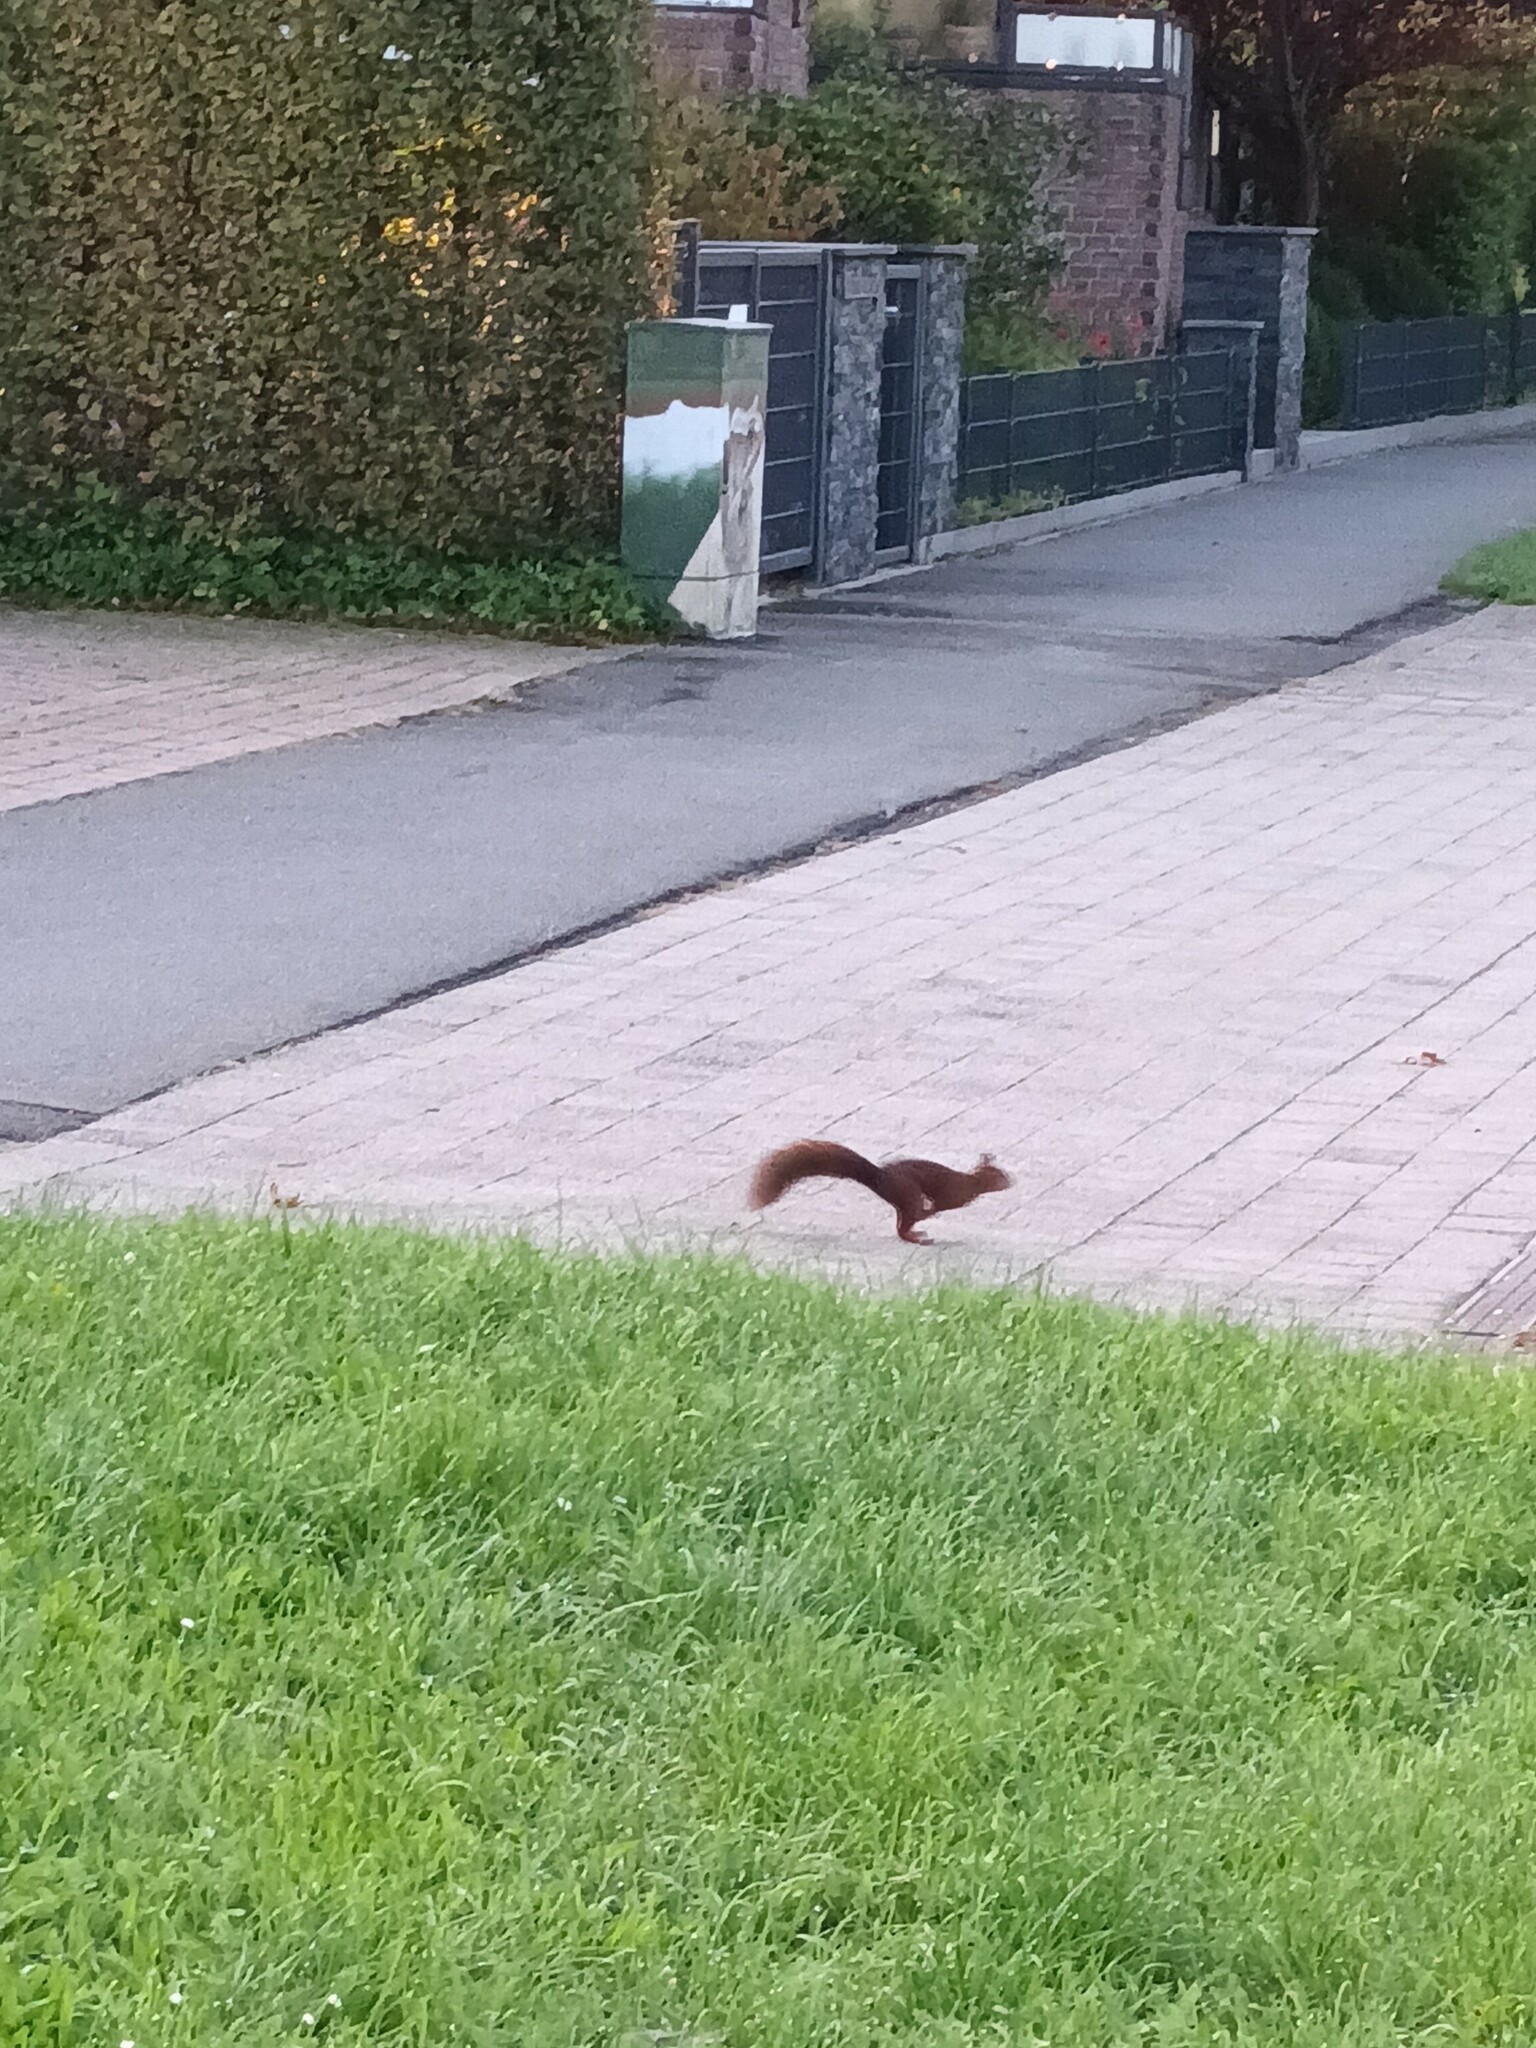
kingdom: Animalia
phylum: Chordata
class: Mammalia
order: Rodentia
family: Sciuridae
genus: Sciurus
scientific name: Sciurus vulgaris
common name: Eurasian red squirrel
